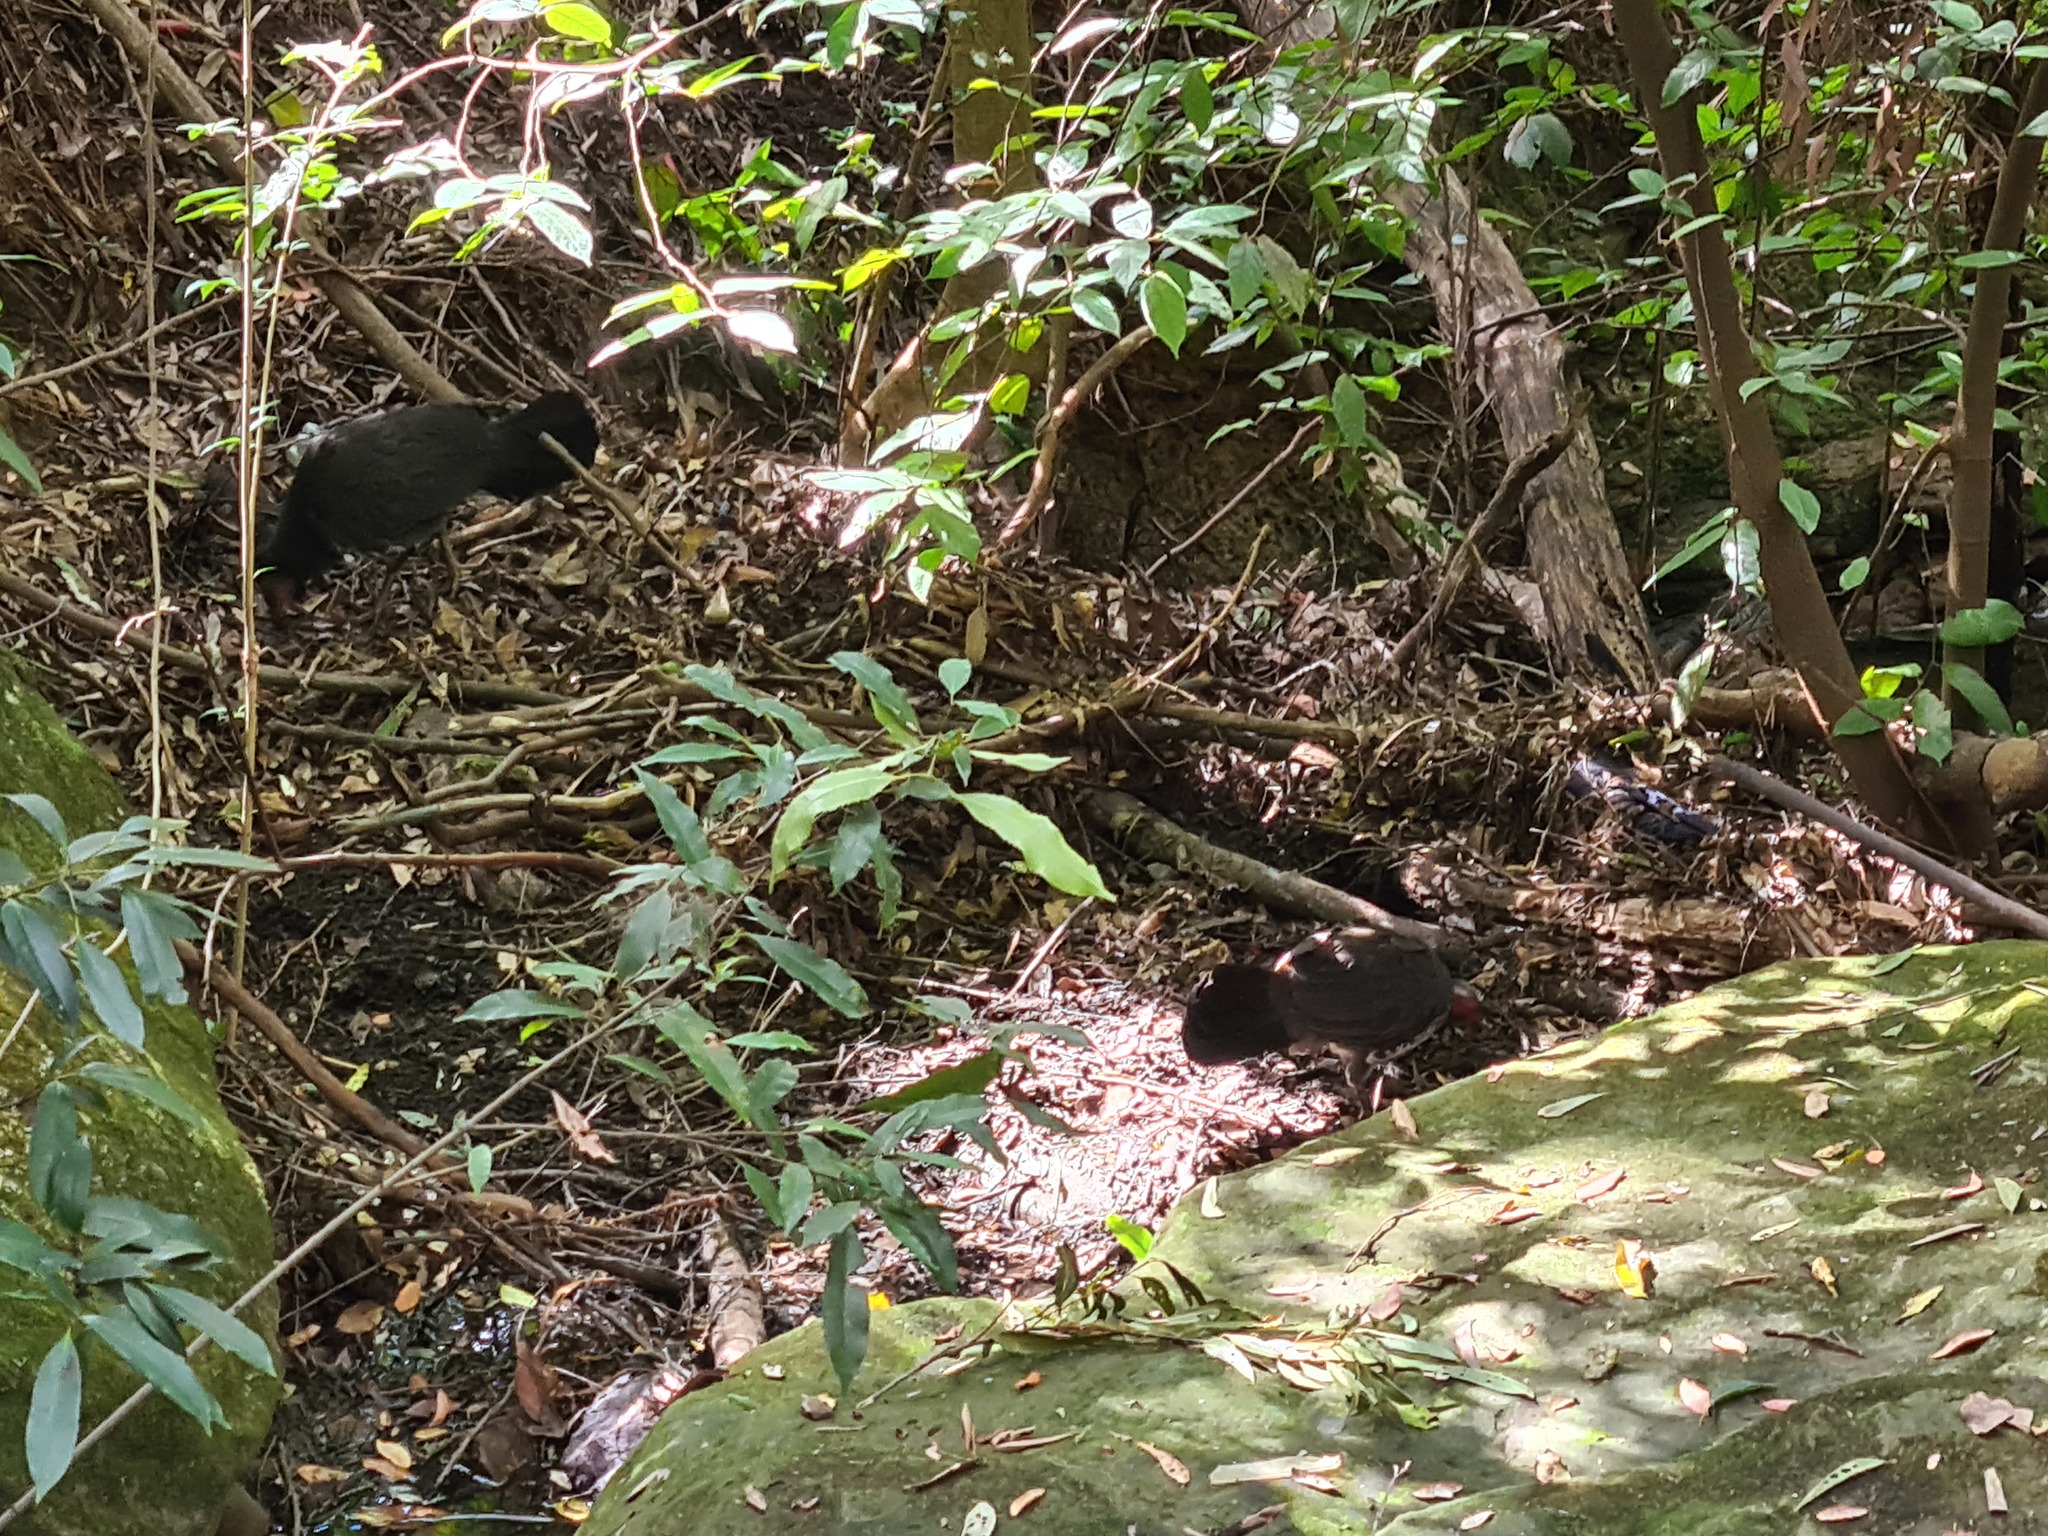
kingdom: Animalia
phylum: Chordata
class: Aves
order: Galliformes
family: Megapodiidae
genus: Alectura
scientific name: Alectura lathami
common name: Australian brushturkey
